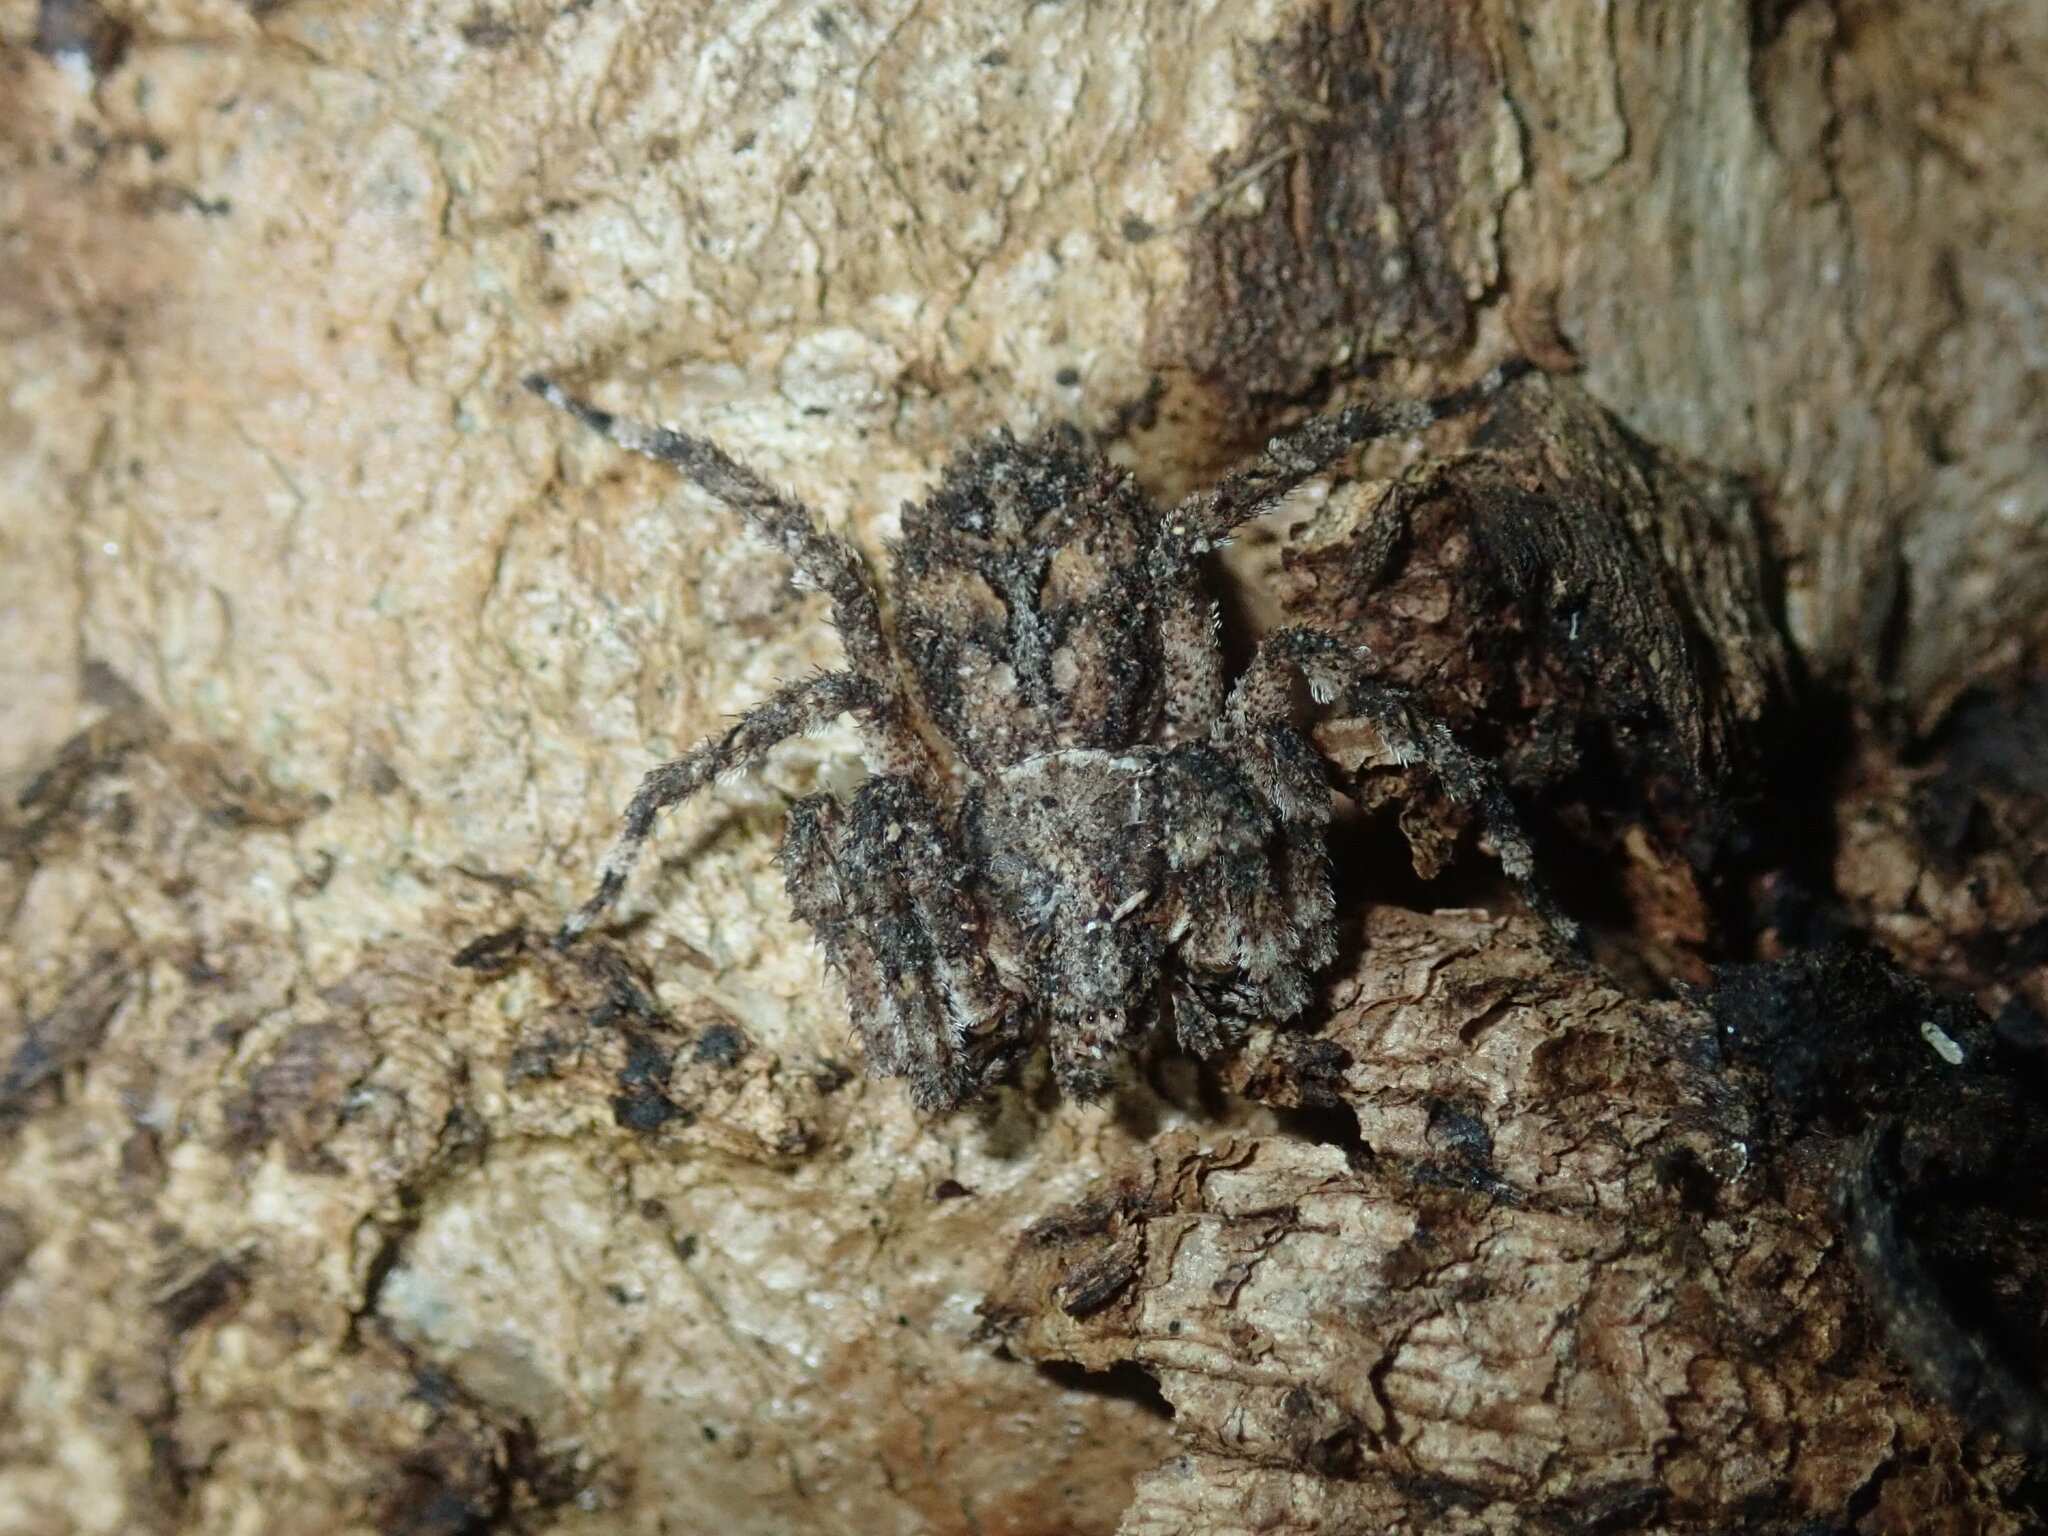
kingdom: Animalia
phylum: Arthropoda
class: Arachnida
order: Araneae
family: Thomisidae
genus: Stephanopis
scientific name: Stephanopis altifrons
